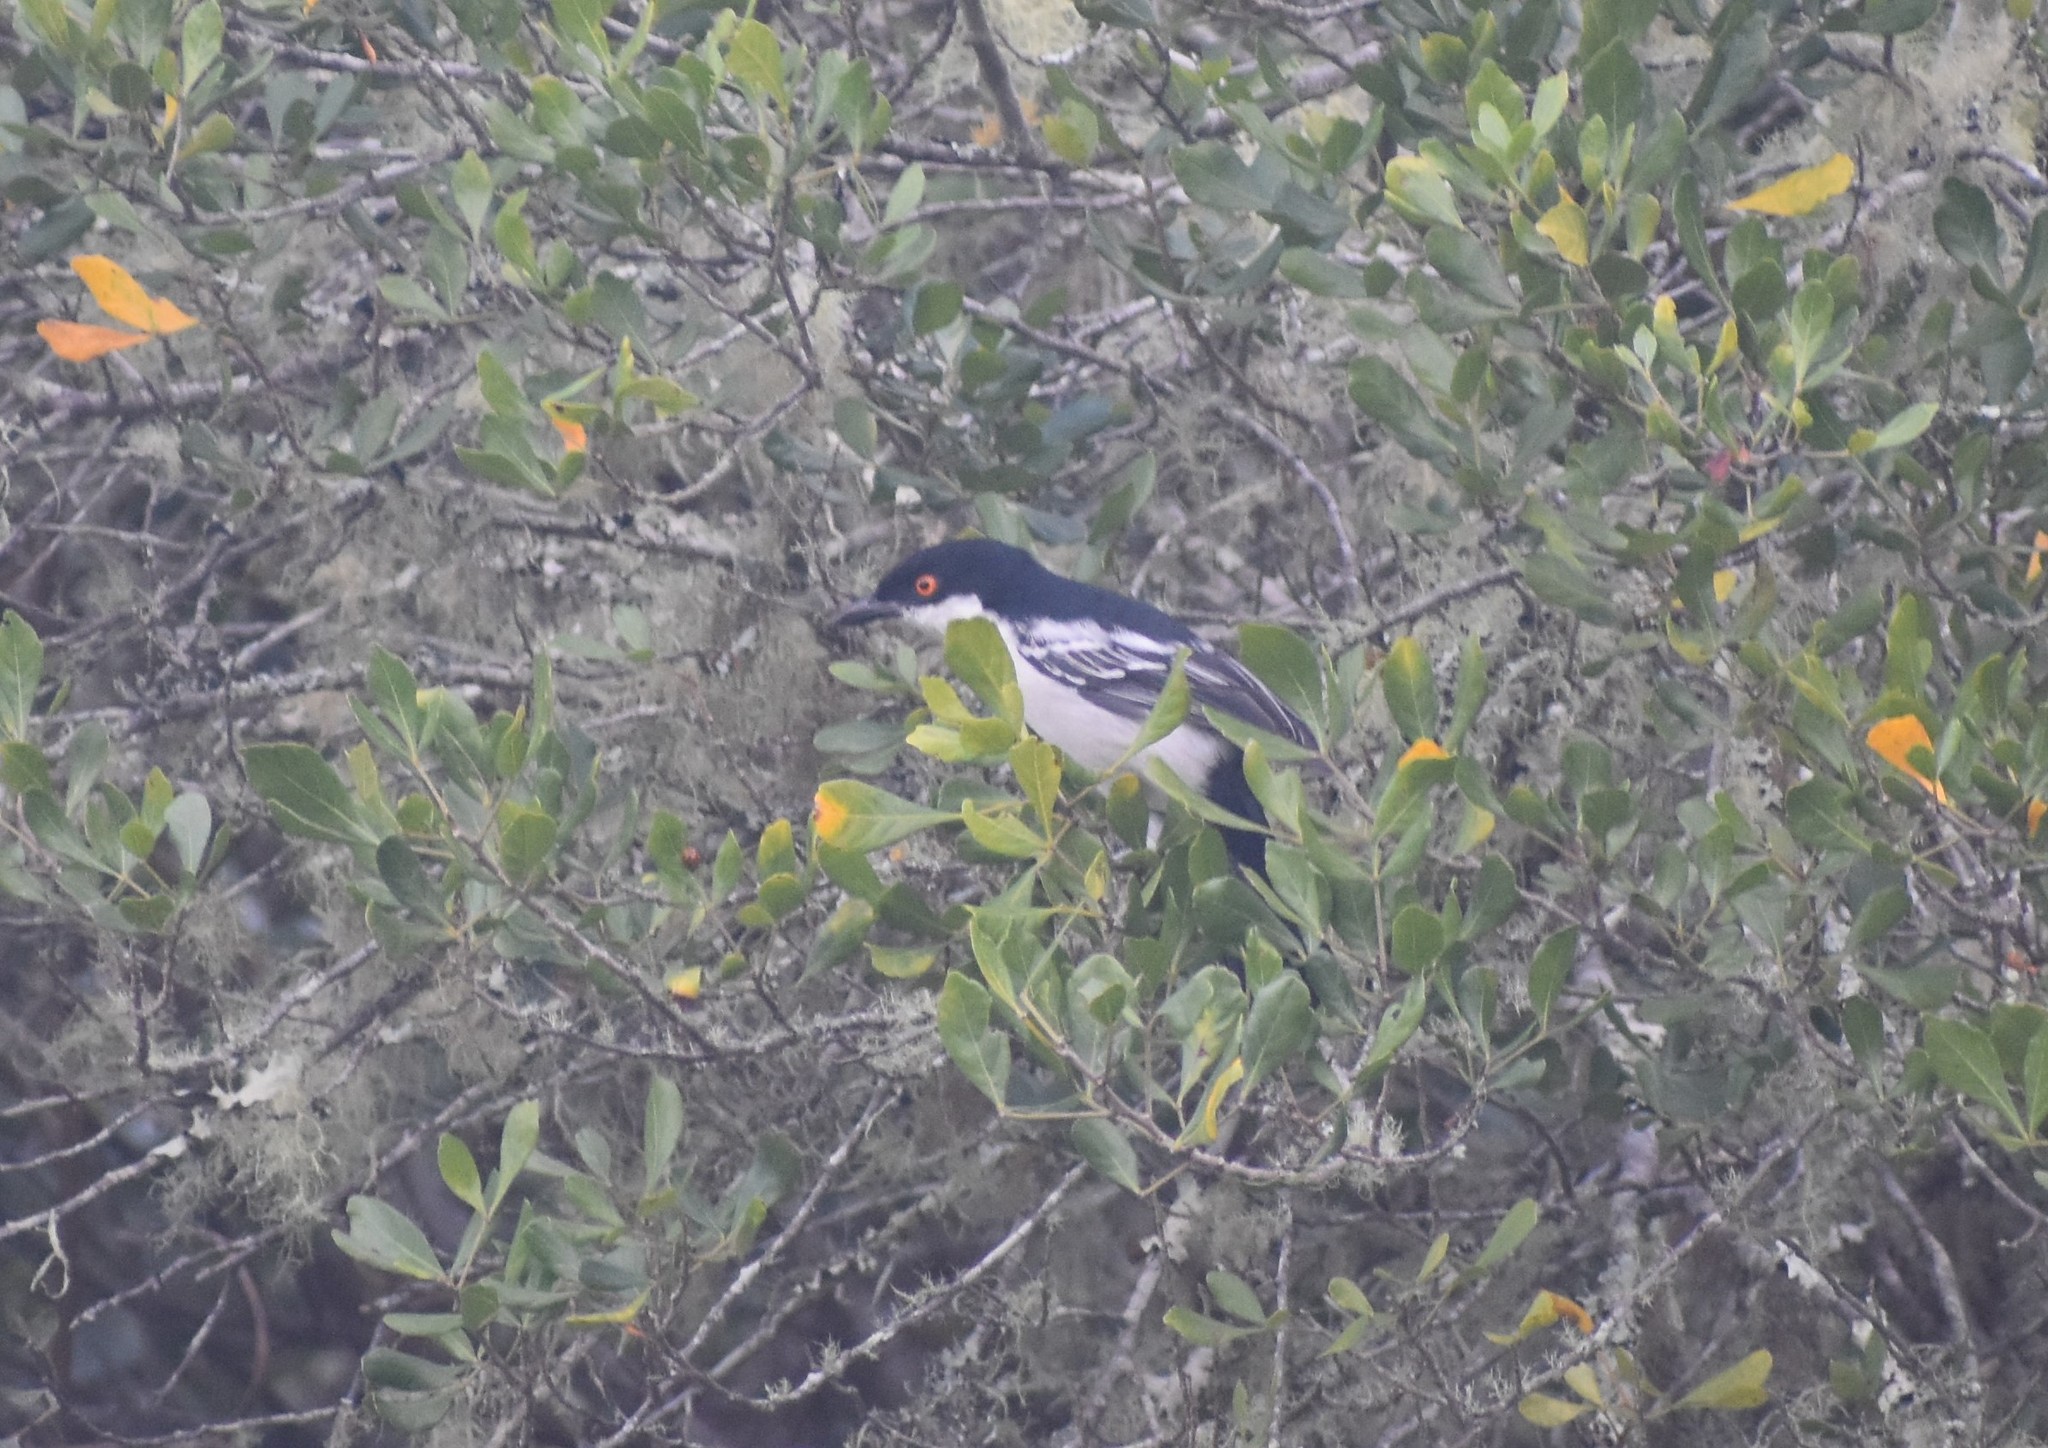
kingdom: Animalia
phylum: Chordata
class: Aves
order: Passeriformes
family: Malaconotidae
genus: Dryoscopus
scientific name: Dryoscopus cubla
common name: Black-backed puffback
